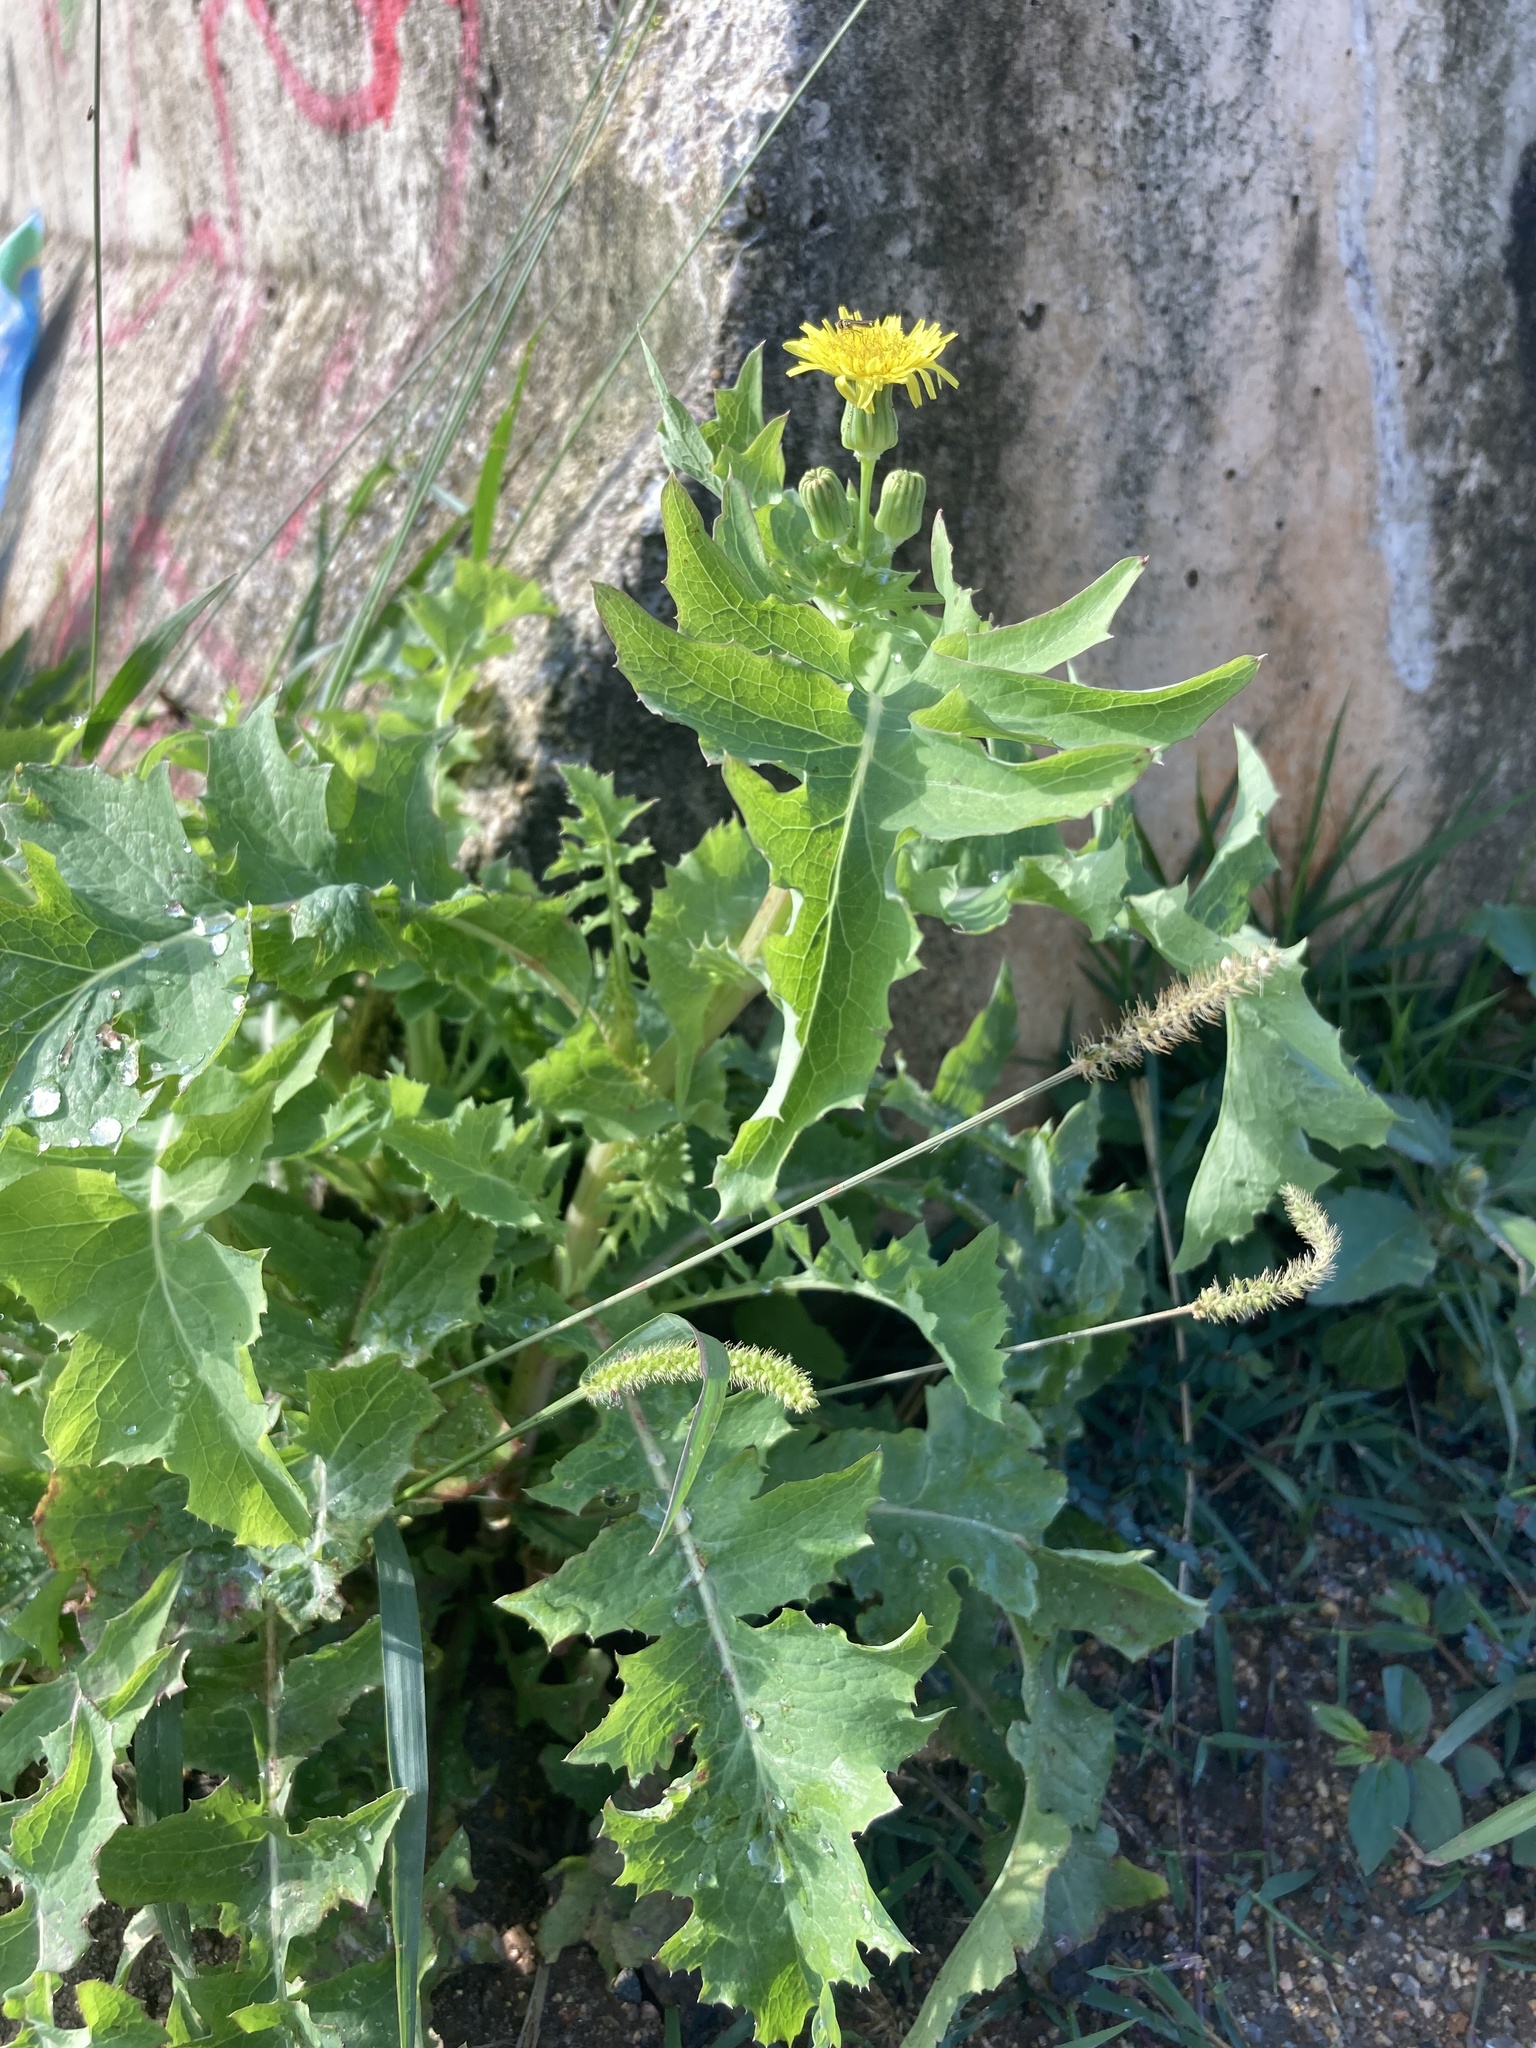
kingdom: Plantae
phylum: Tracheophyta
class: Magnoliopsida
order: Asterales
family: Asteraceae
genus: Sonchus
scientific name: Sonchus oleraceus
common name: Common sowthistle
